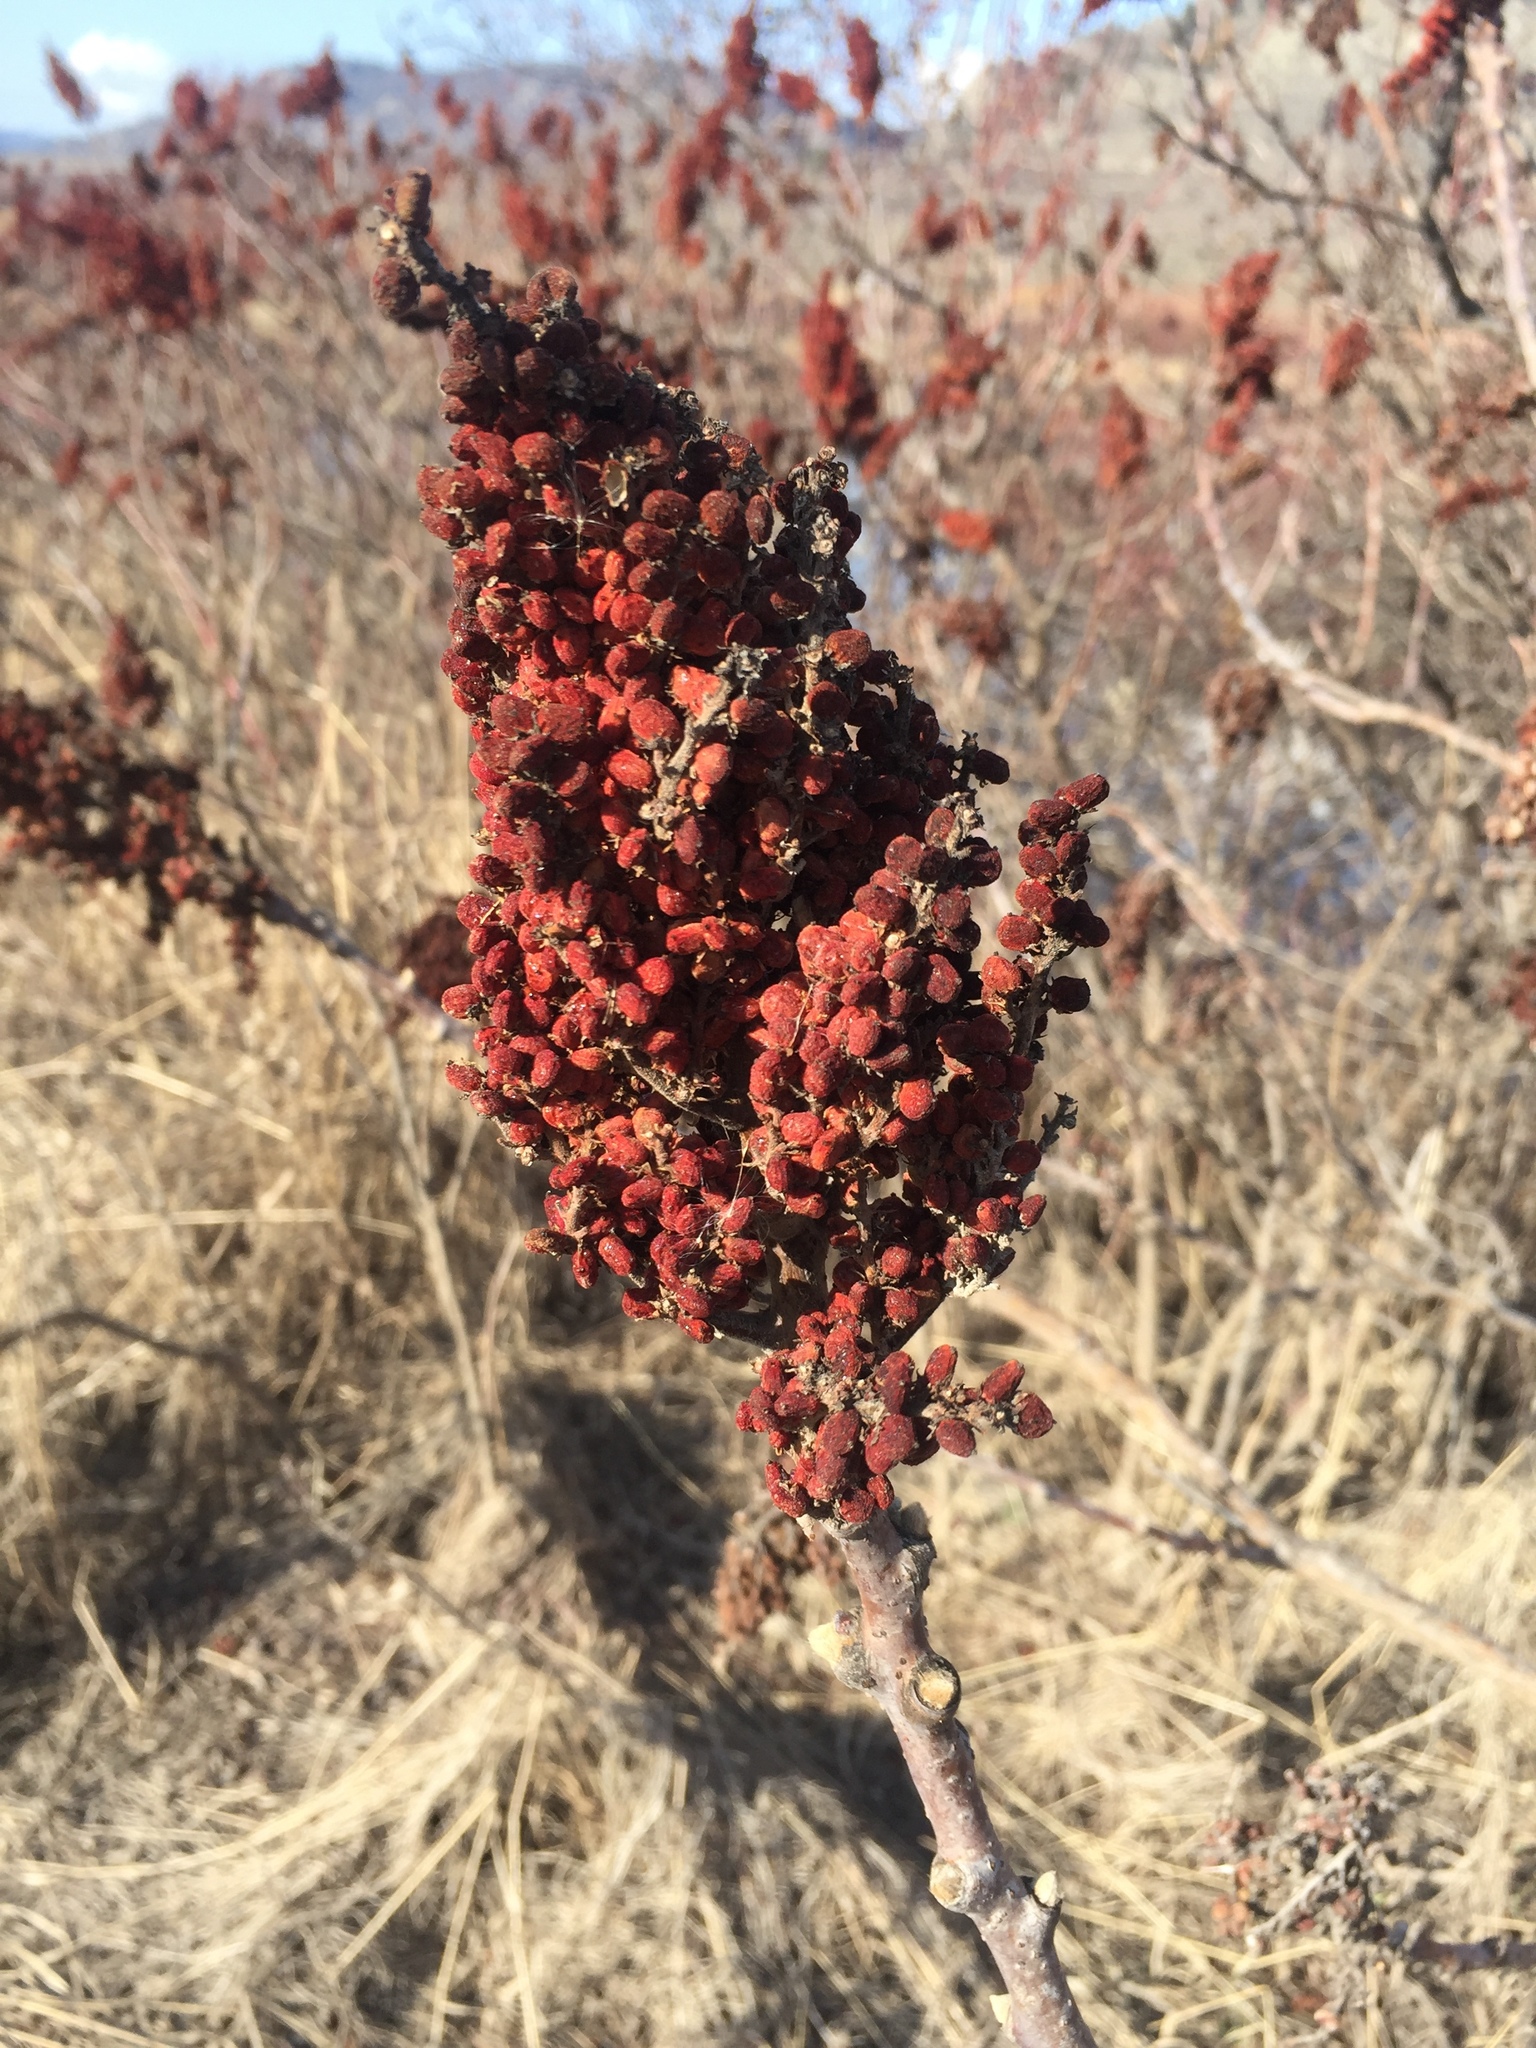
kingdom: Plantae
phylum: Tracheophyta
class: Magnoliopsida
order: Sapindales
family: Anacardiaceae
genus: Rhus
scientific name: Rhus glabra
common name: Scarlet sumac
